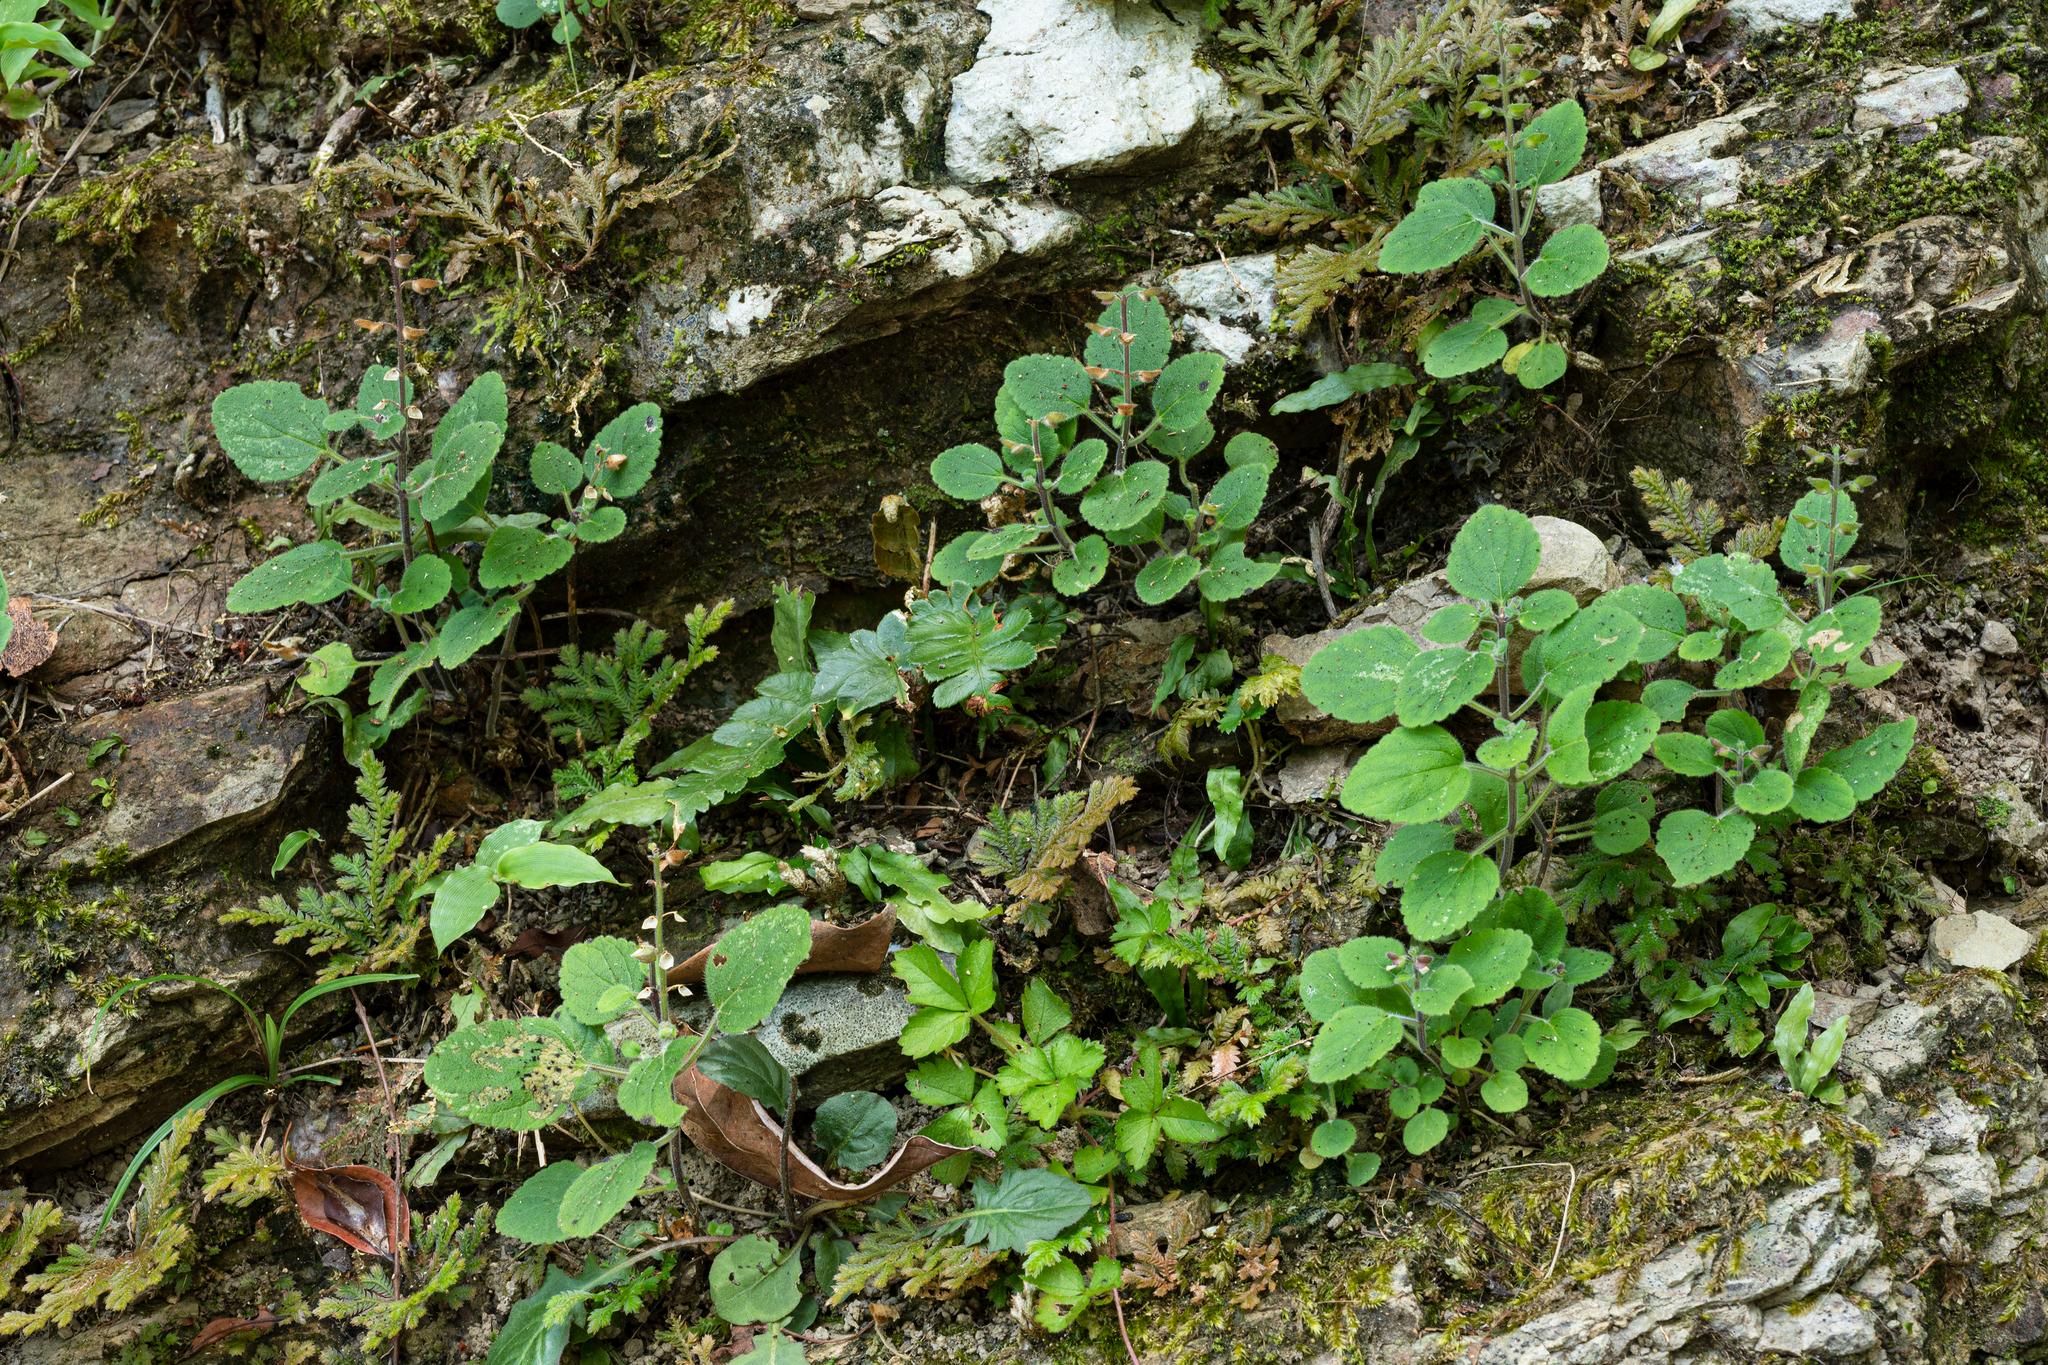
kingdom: Plantae
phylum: Tracheophyta
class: Magnoliopsida
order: Lamiales
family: Lamiaceae
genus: Scutellaria
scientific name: Scutellaria indica
